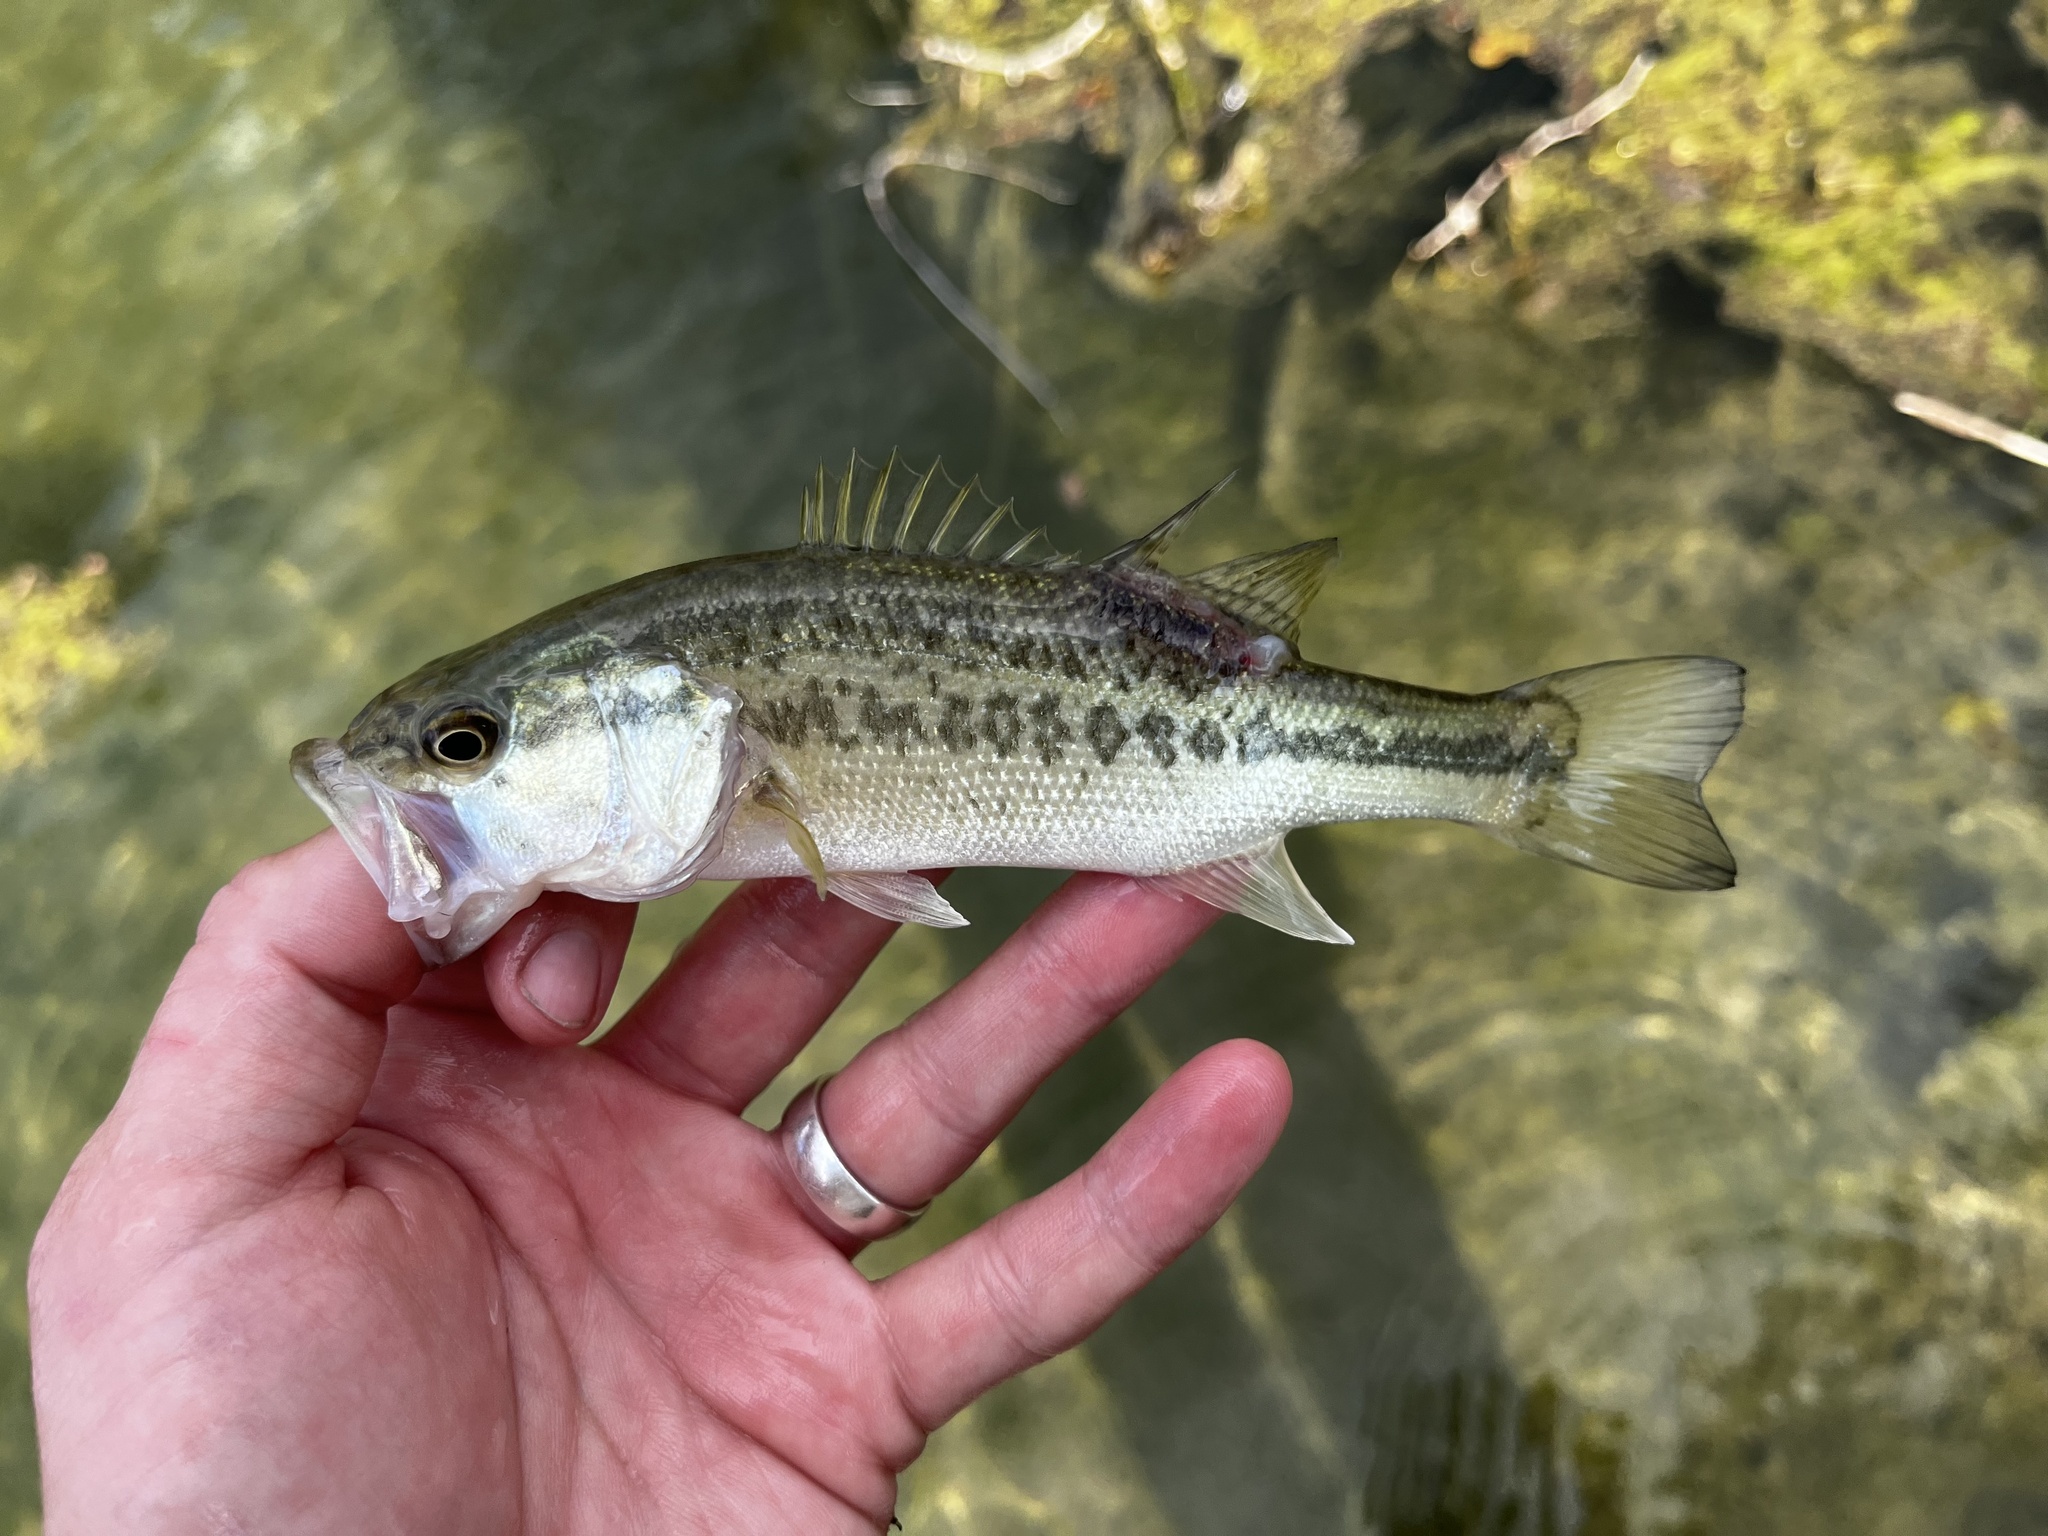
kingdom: Animalia
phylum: Chordata
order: Perciformes
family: Centrarchidae
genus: Micropterus
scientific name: Micropterus
